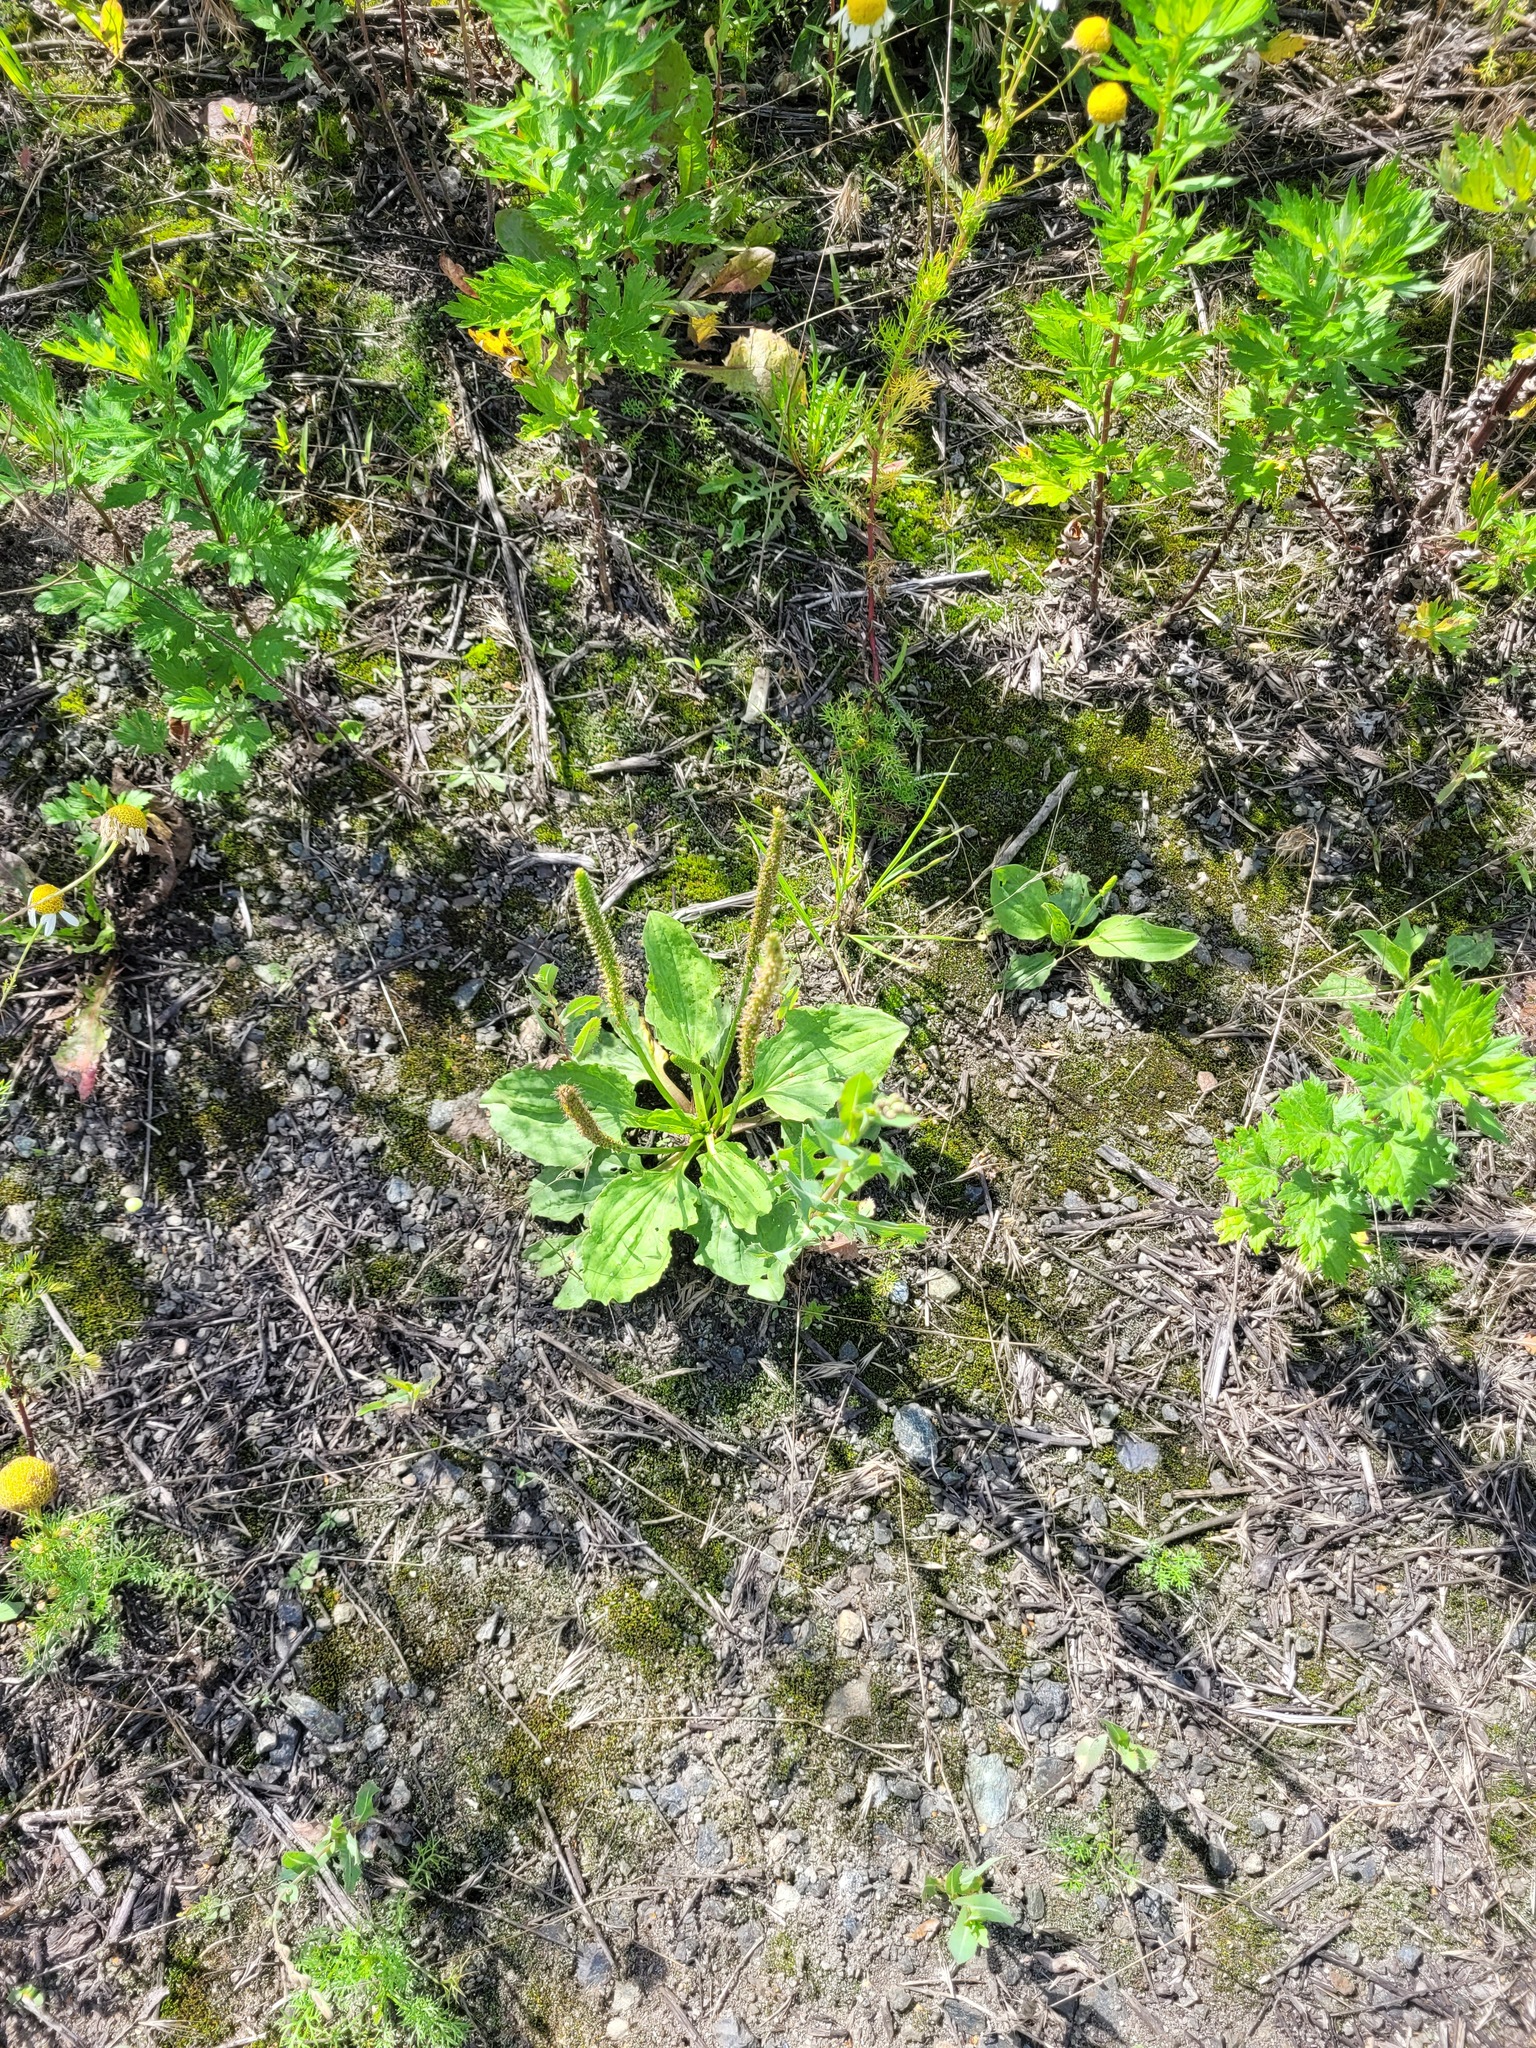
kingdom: Plantae
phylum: Tracheophyta
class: Magnoliopsida
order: Lamiales
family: Plantaginaceae
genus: Plantago
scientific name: Plantago major
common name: Common plantain
